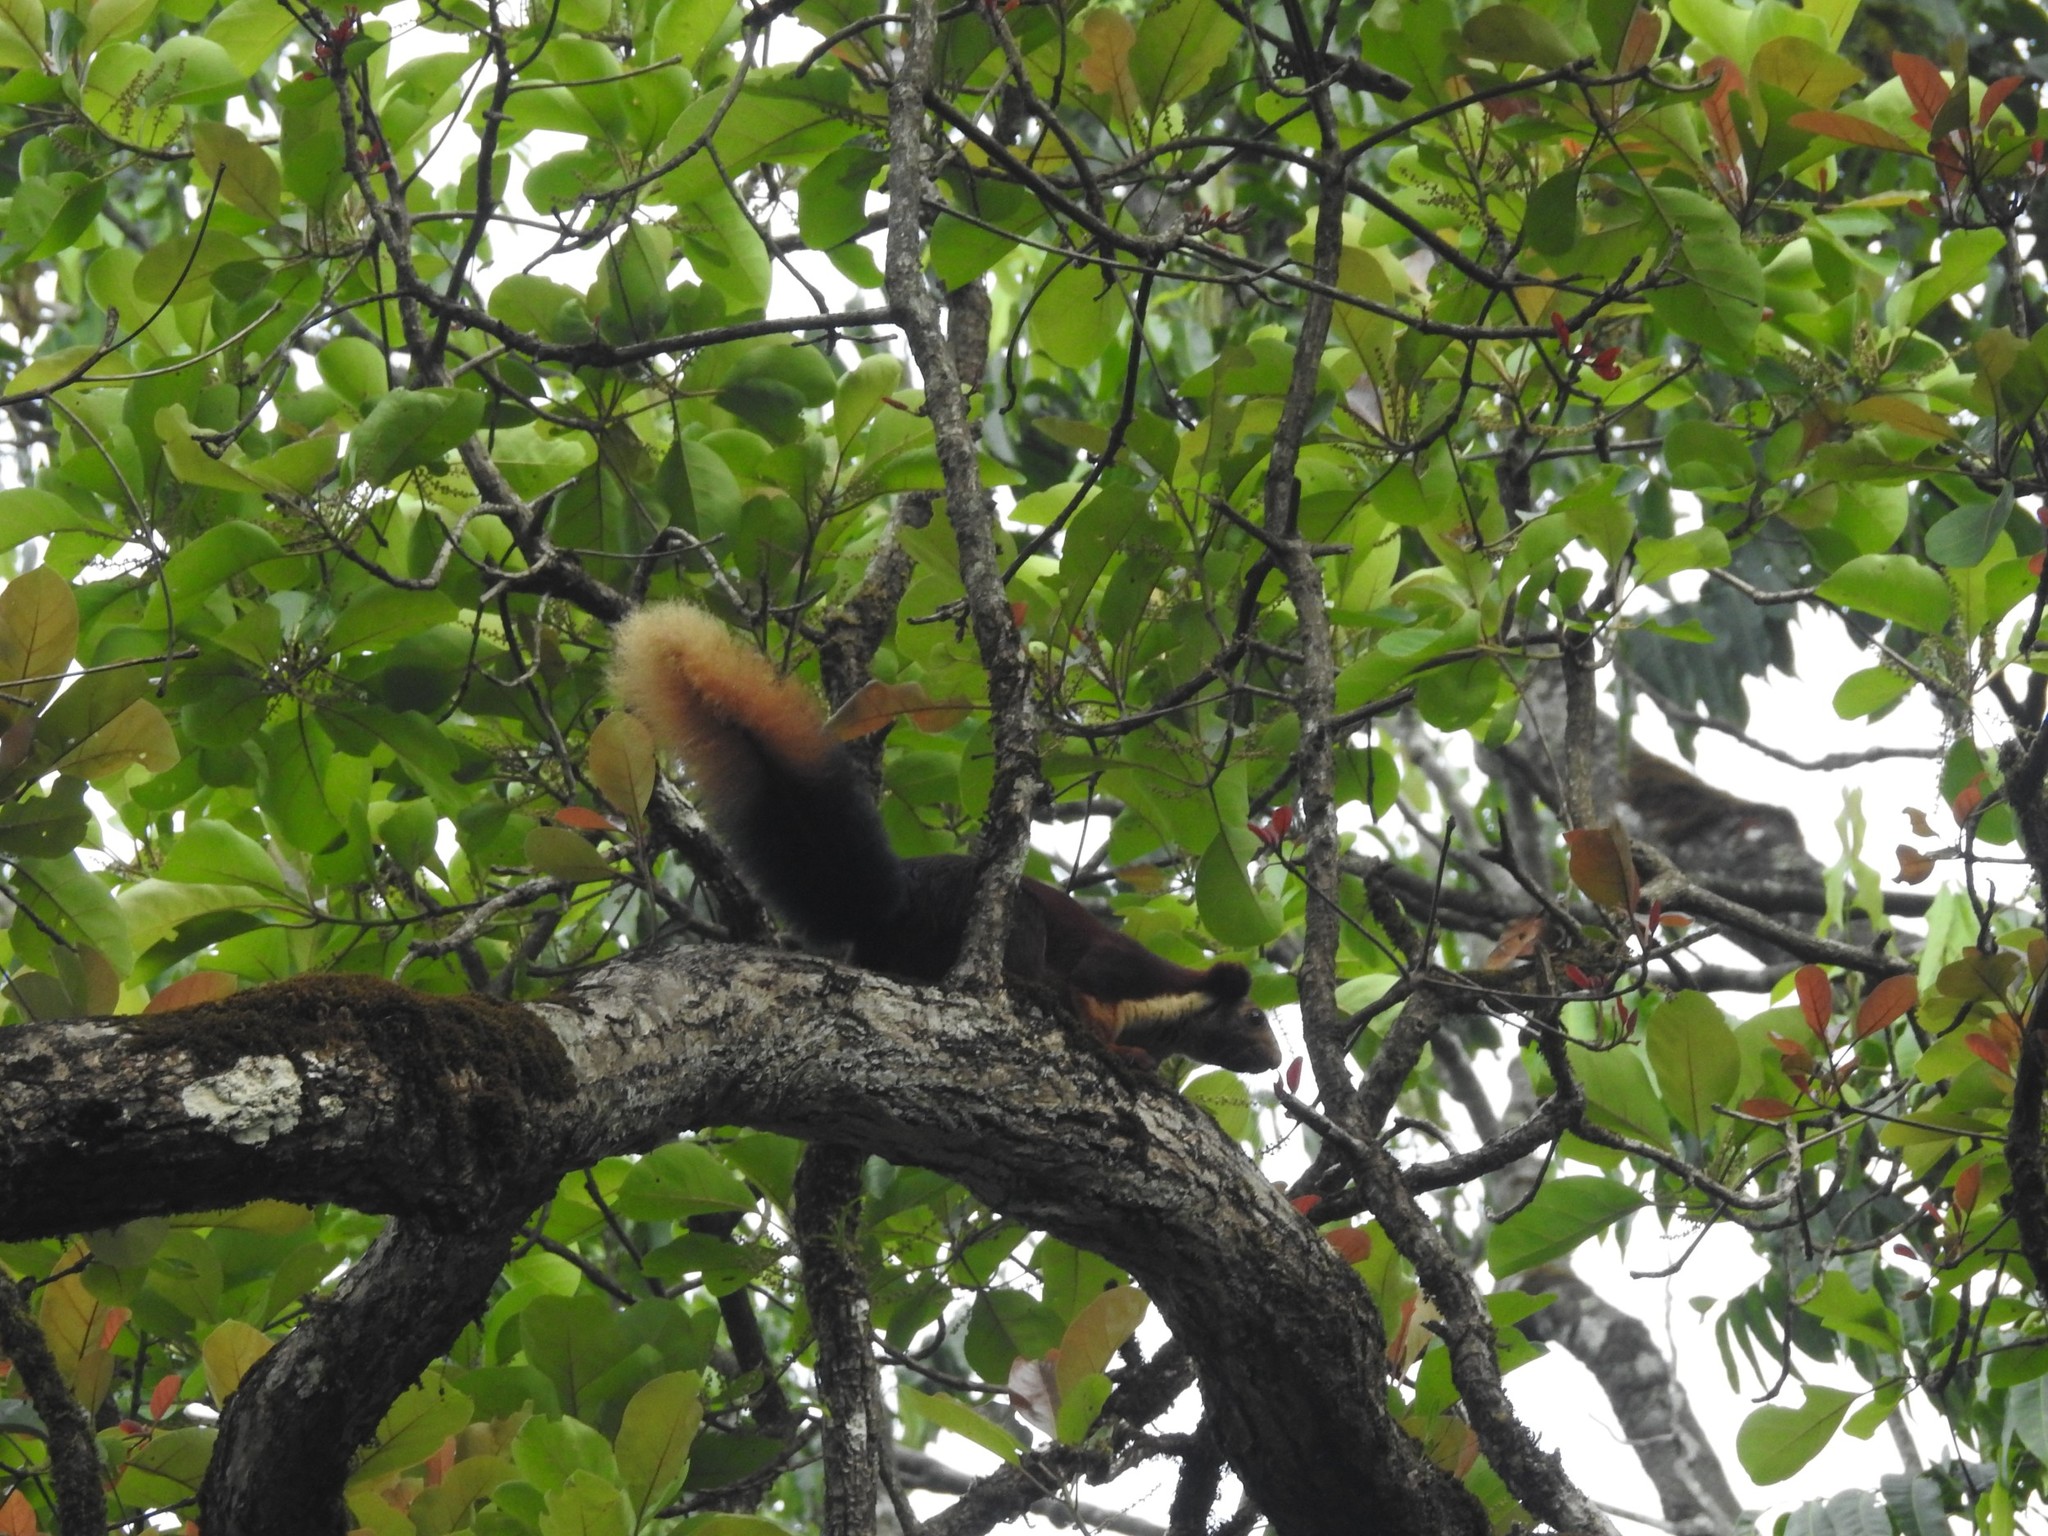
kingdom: Animalia
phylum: Chordata
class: Mammalia
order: Rodentia
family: Sciuridae
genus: Ratufa
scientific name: Ratufa indica
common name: Indian giant squirrel
